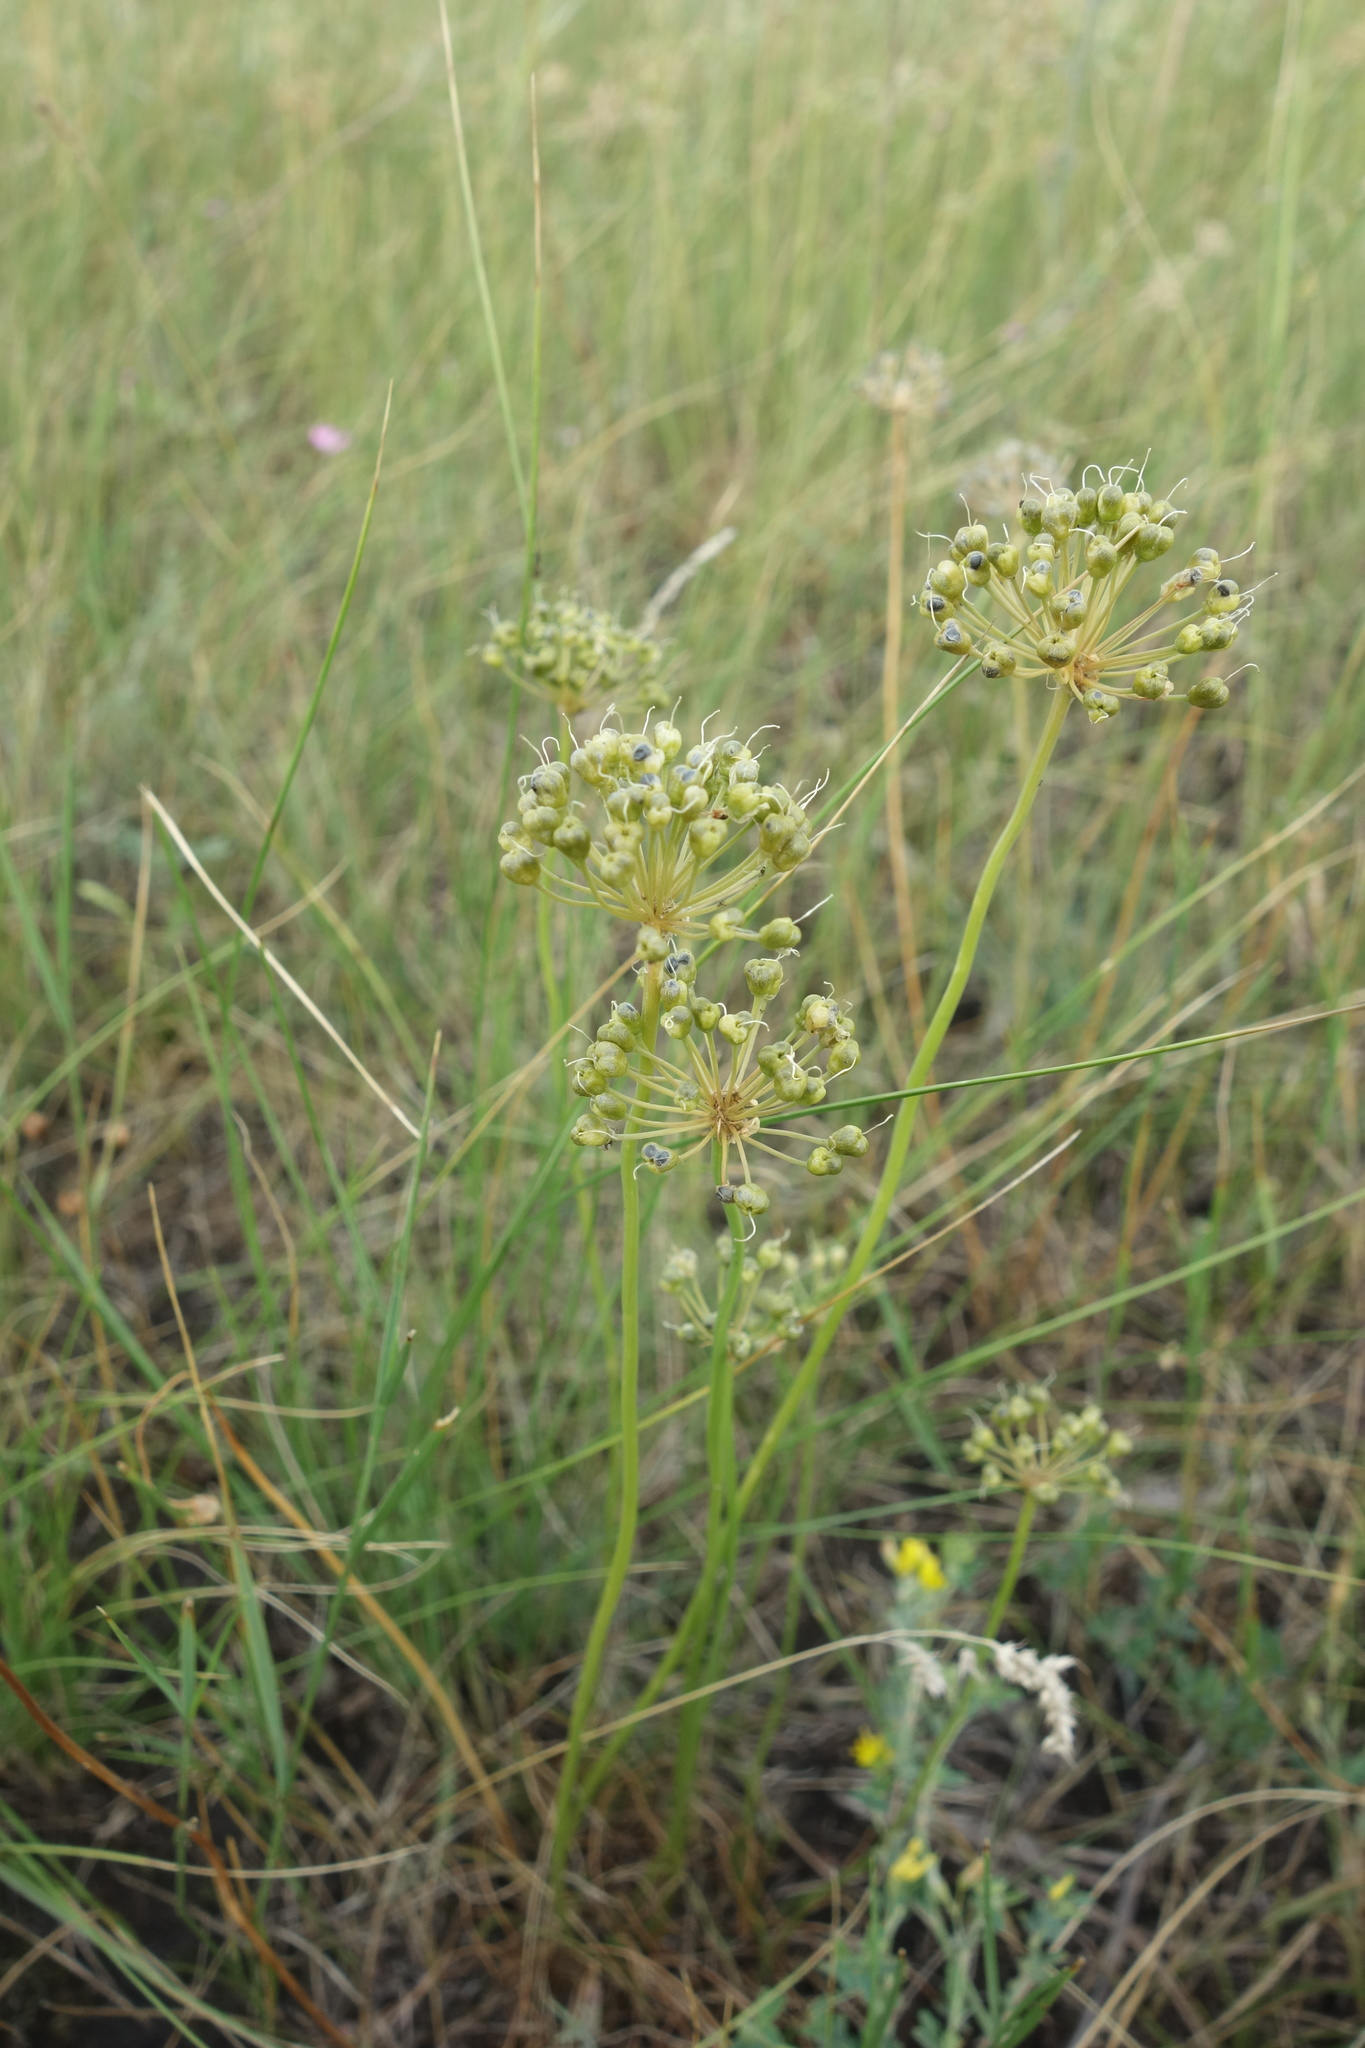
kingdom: Plantae
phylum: Tracheophyta
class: Liliopsida
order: Asparagales
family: Amaryllidaceae
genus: Allium
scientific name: Allium flavescens
